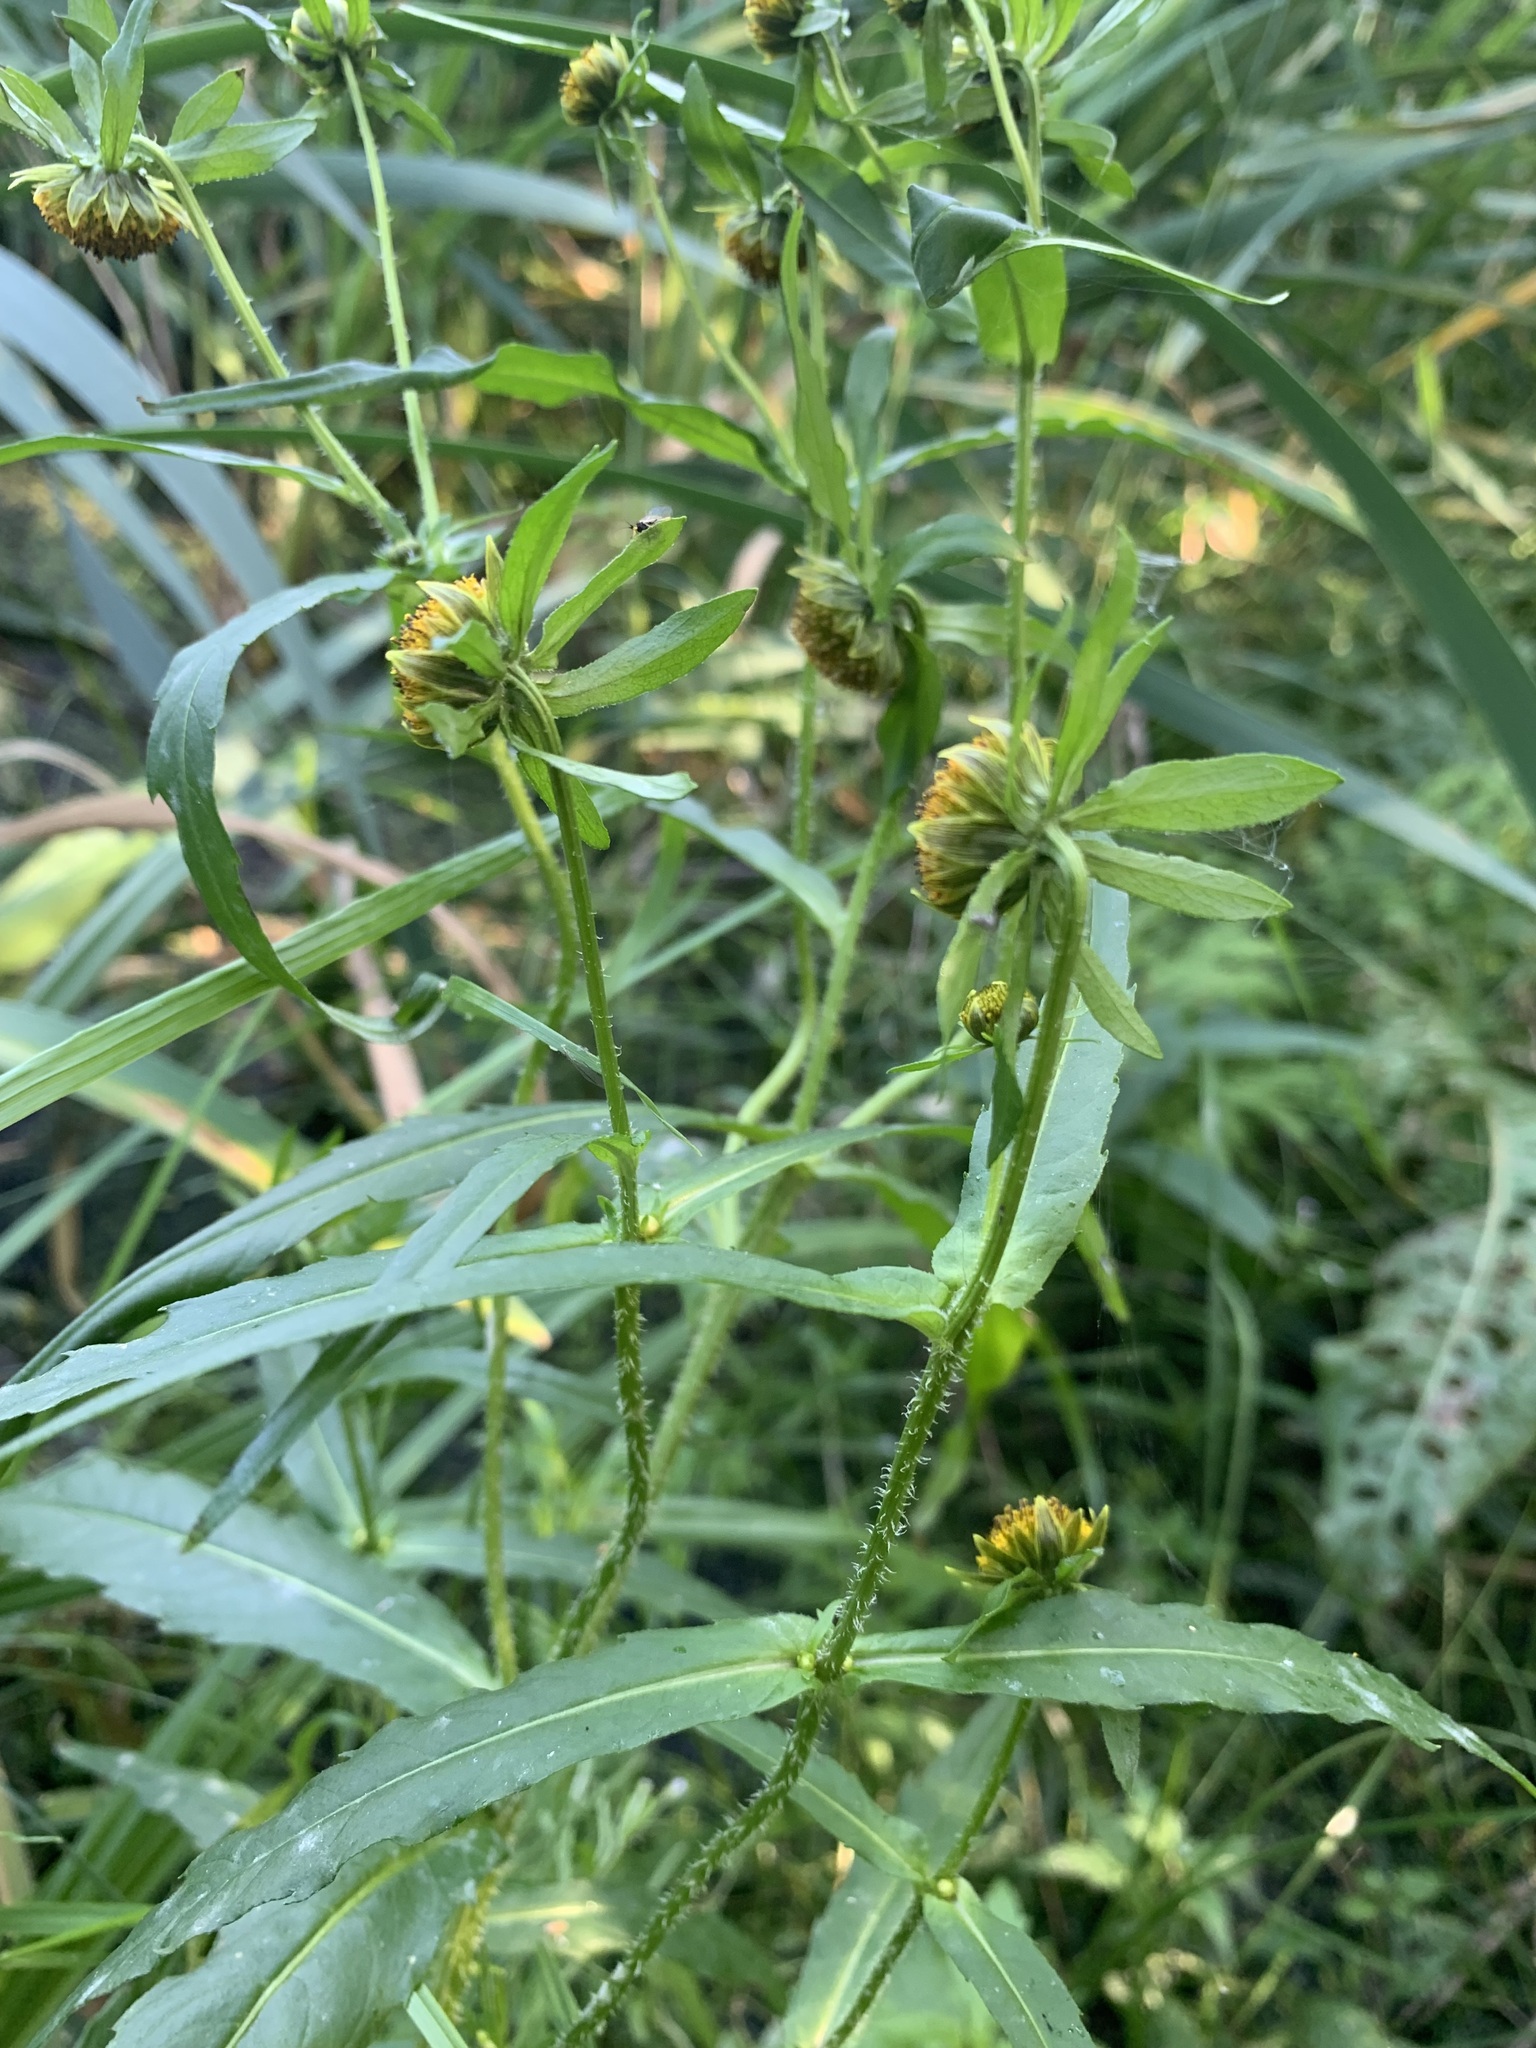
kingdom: Plantae
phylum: Tracheophyta
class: Magnoliopsida
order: Asterales
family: Asteraceae
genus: Bidens
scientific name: Bidens cernua
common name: Nodding bur-marigold
